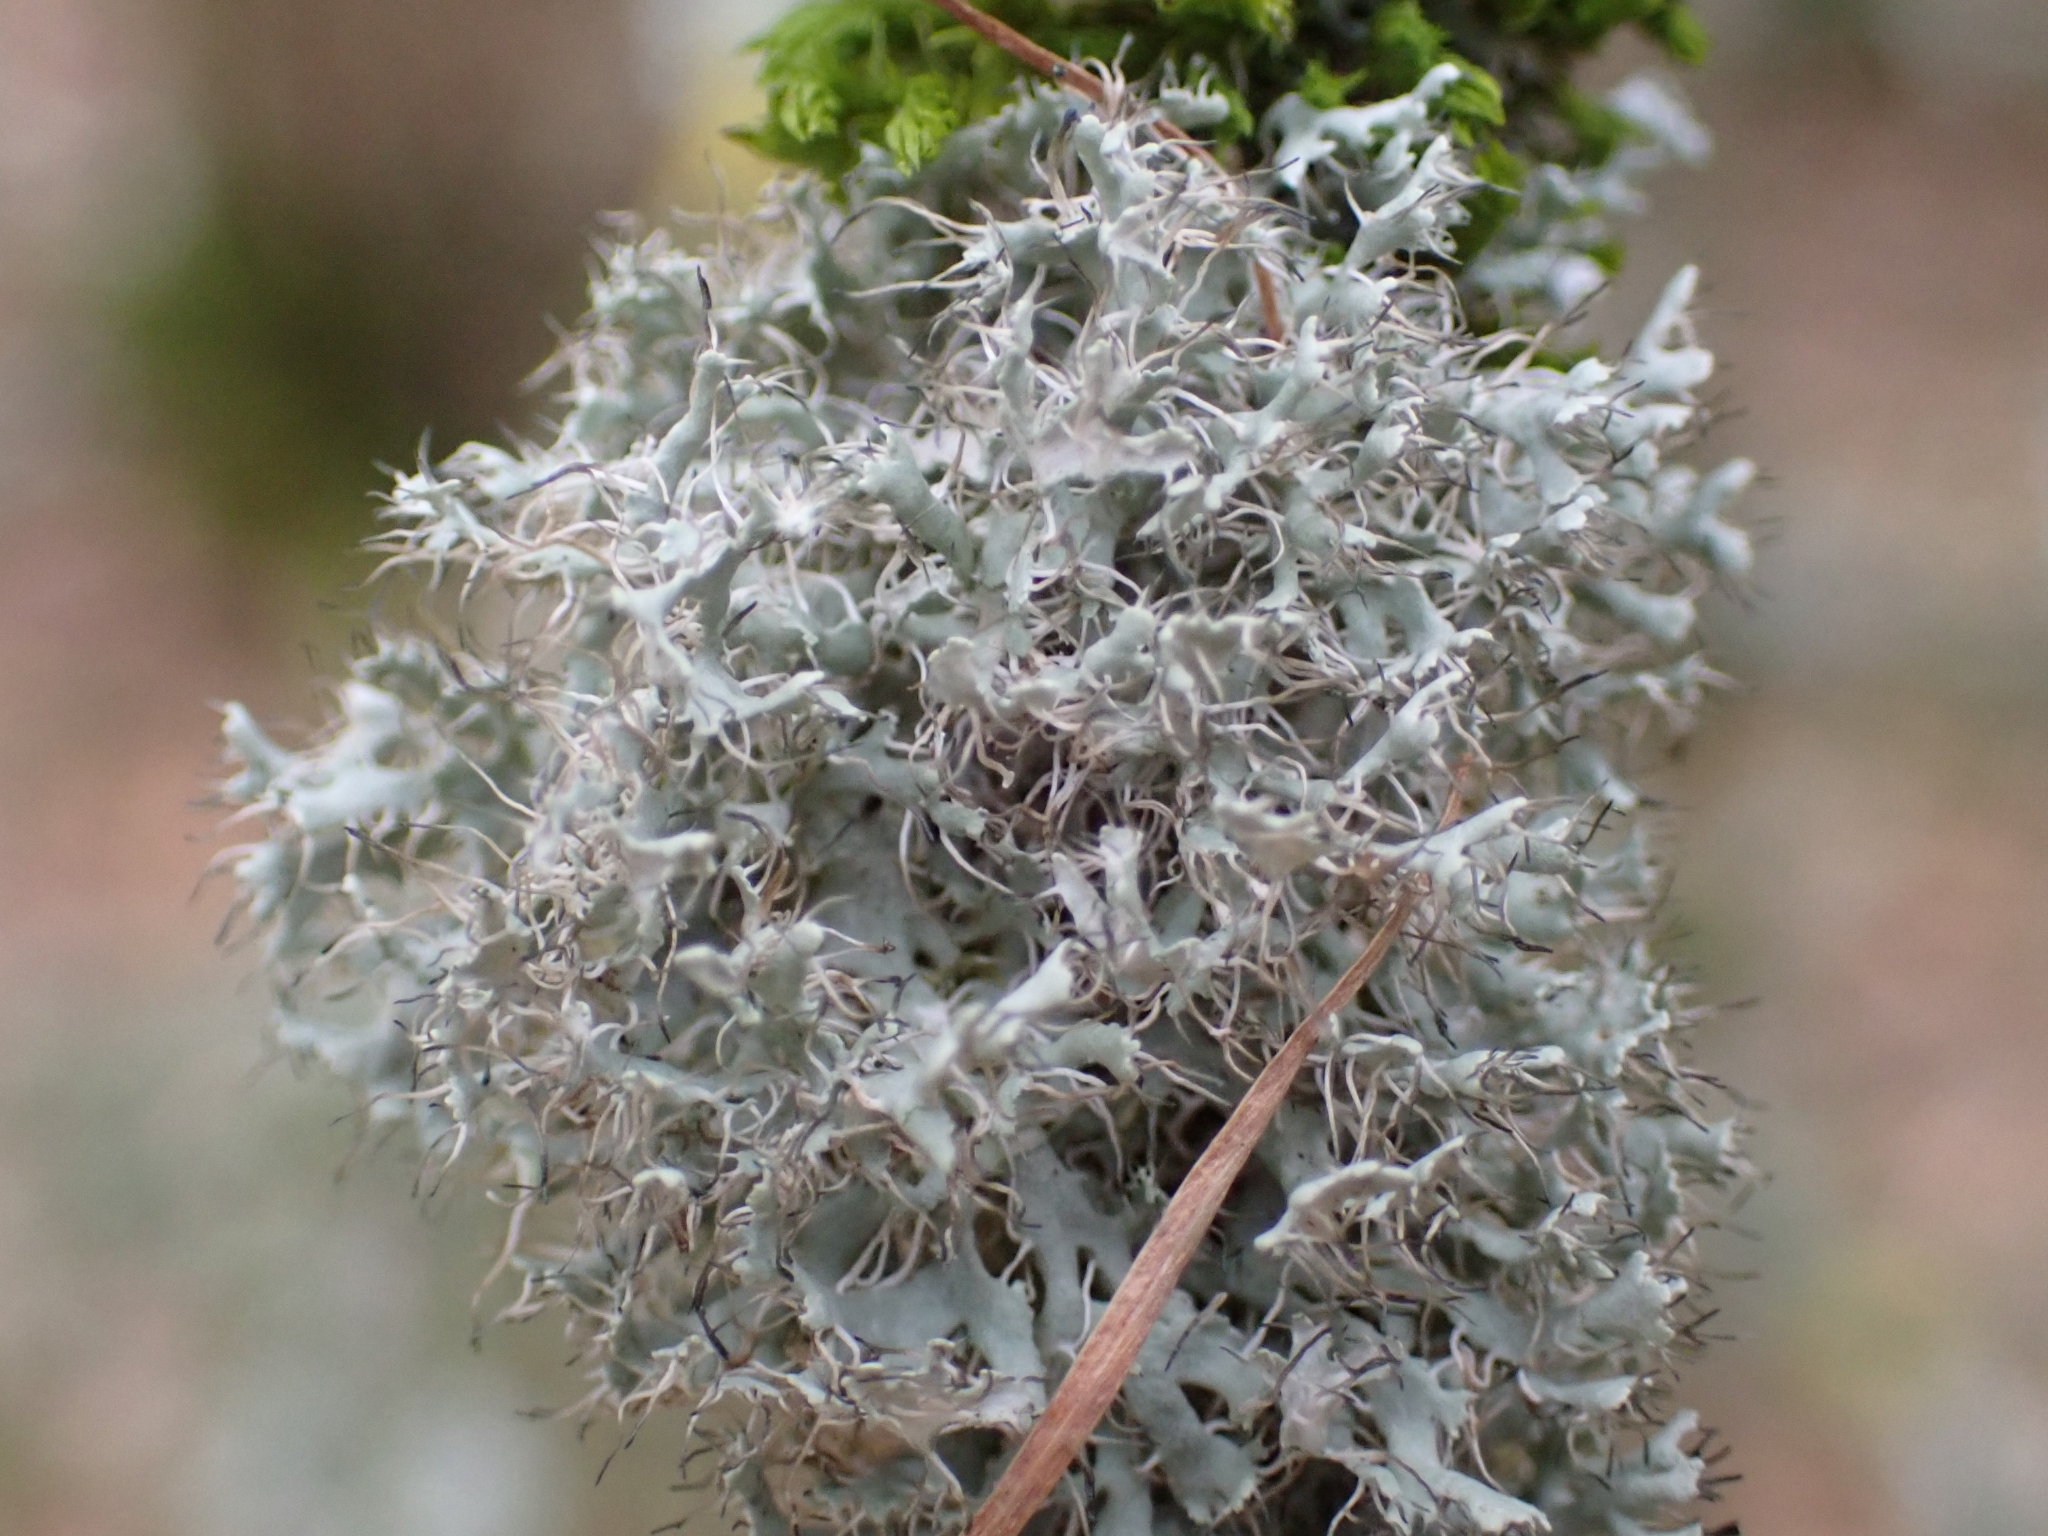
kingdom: Fungi
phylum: Ascomycota
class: Lecanoromycetes
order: Caliciales
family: Physciaceae
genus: Physcia
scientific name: Physcia adscendens
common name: Hooded rosette lichen
